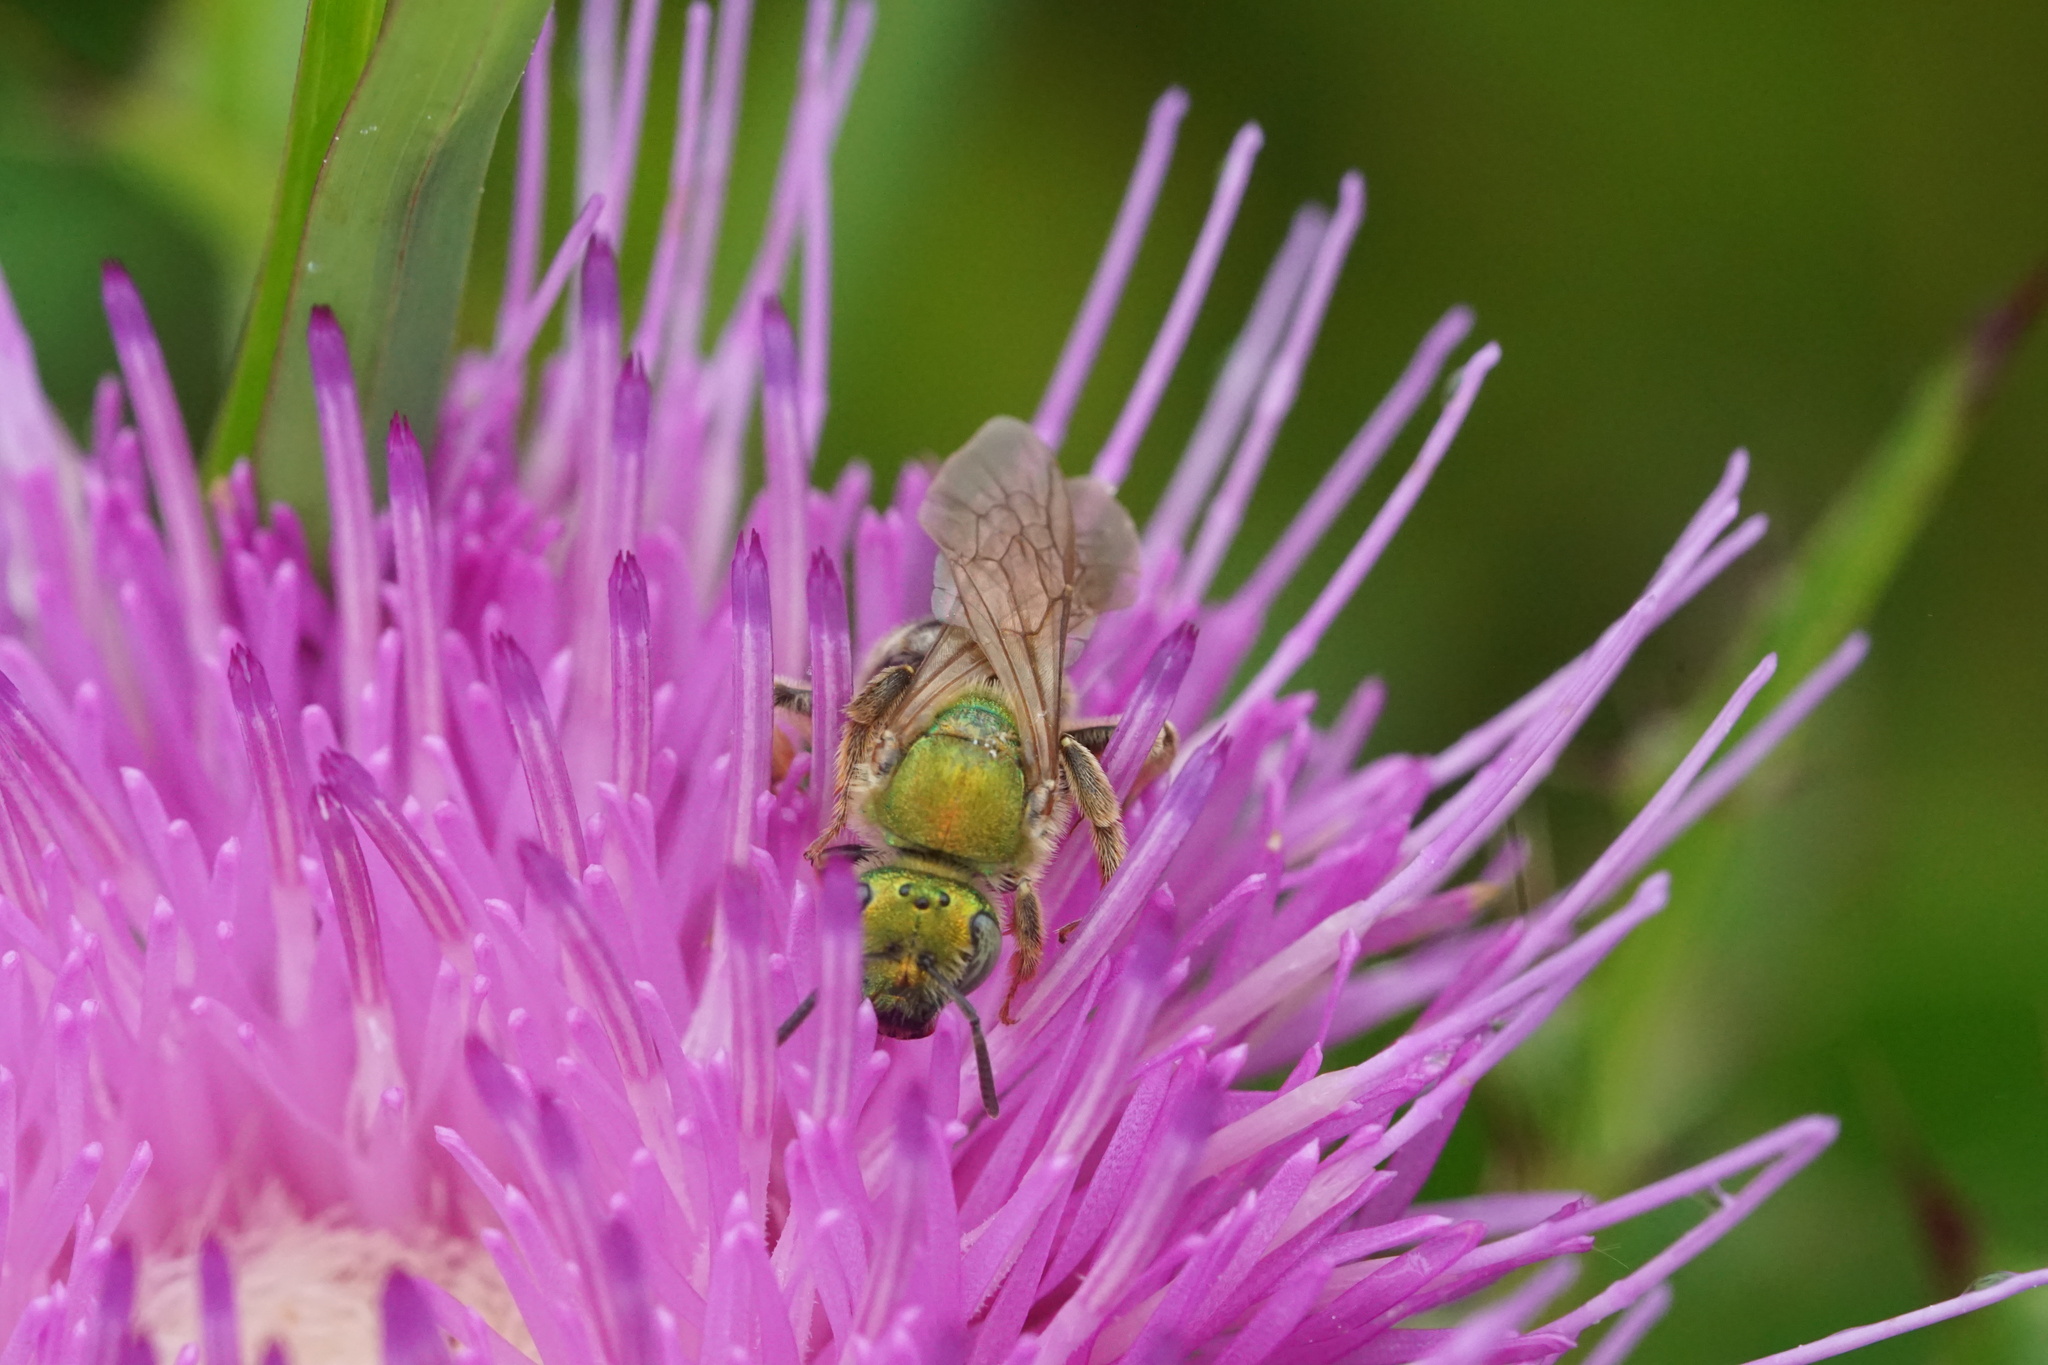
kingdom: Animalia
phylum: Arthropoda
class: Insecta
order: Hymenoptera
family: Halictidae
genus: Agapostemon
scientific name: Agapostemon virescens
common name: Bicolored striped sweat bee
